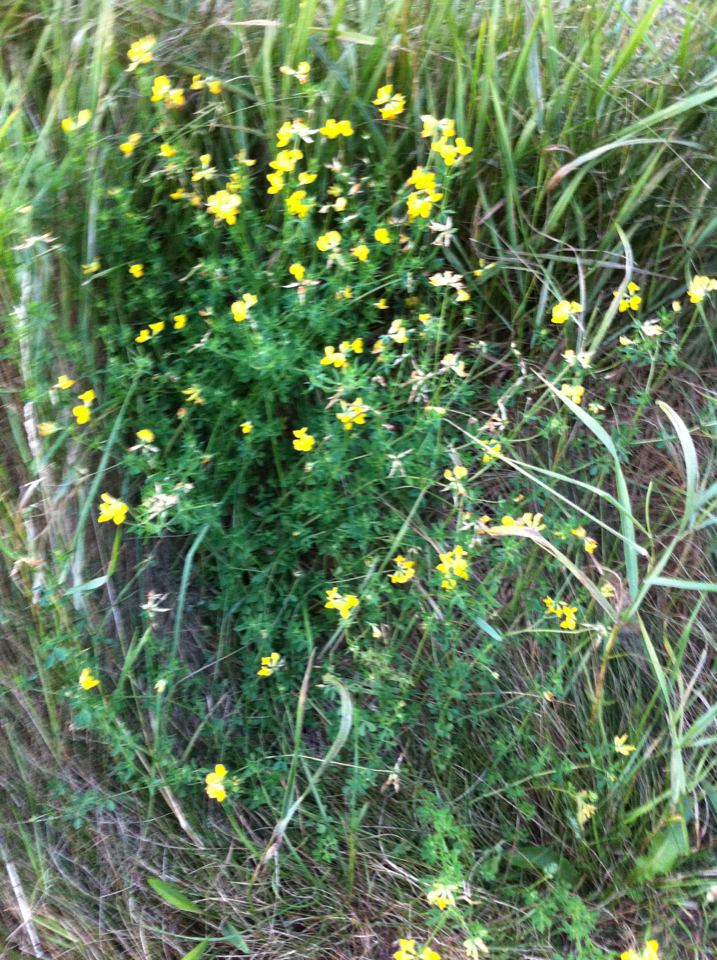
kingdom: Plantae
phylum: Tracheophyta
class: Magnoliopsida
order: Fabales
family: Fabaceae
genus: Lotus
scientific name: Lotus corniculatus
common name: Common bird's-foot-trefoil
